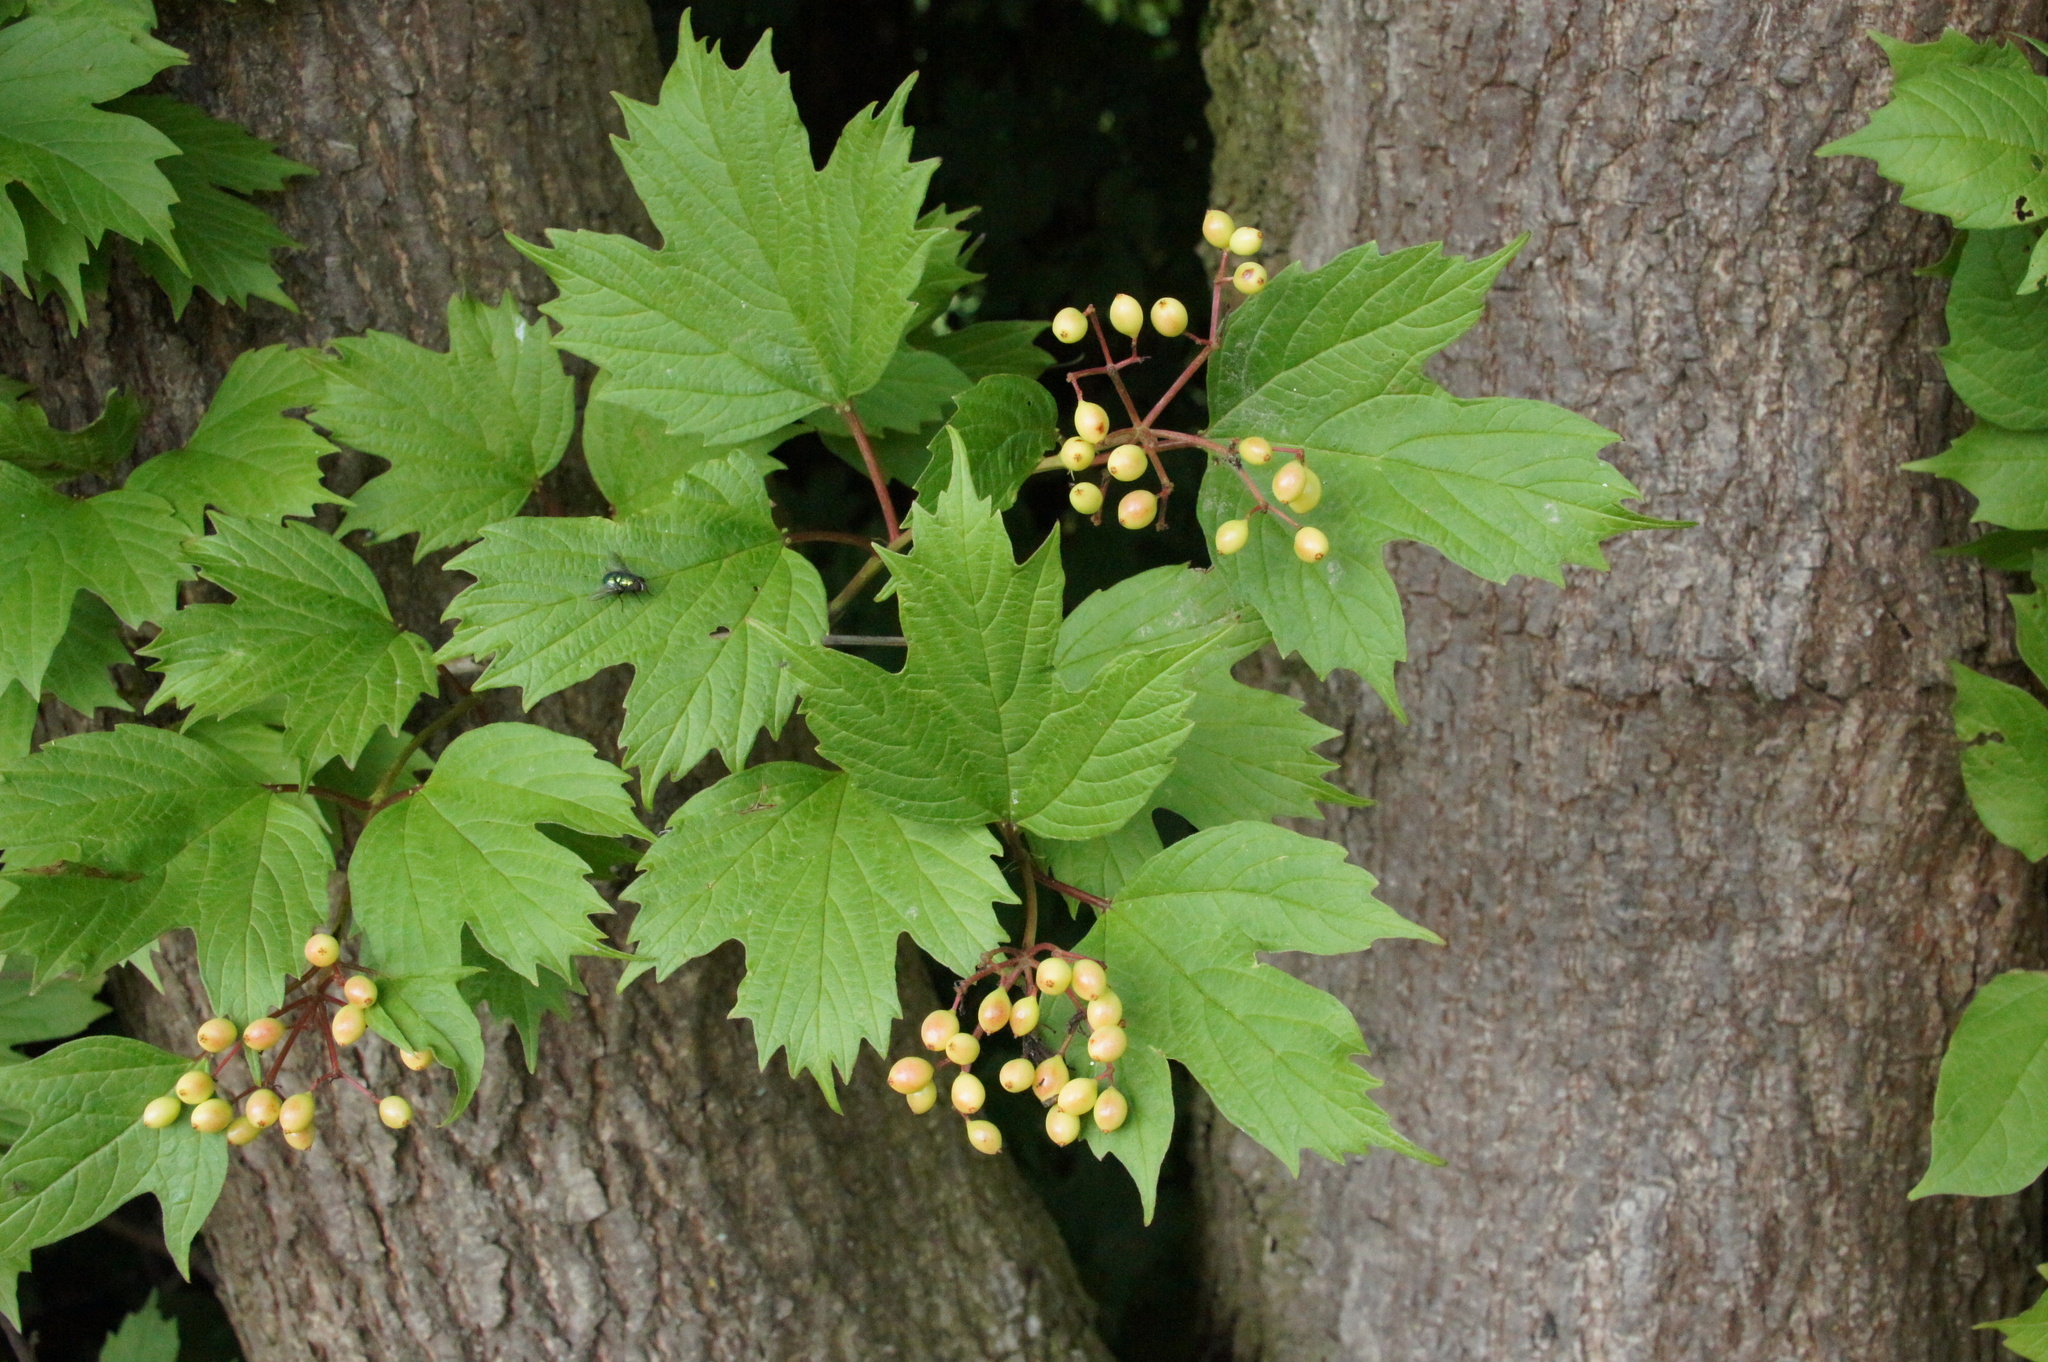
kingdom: Plantae
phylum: Tracheophyta
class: Magnoliopsida
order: Dipsacales
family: Viburnaceae
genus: Viburnum
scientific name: Viburnum opulus
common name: Guelder-rose
